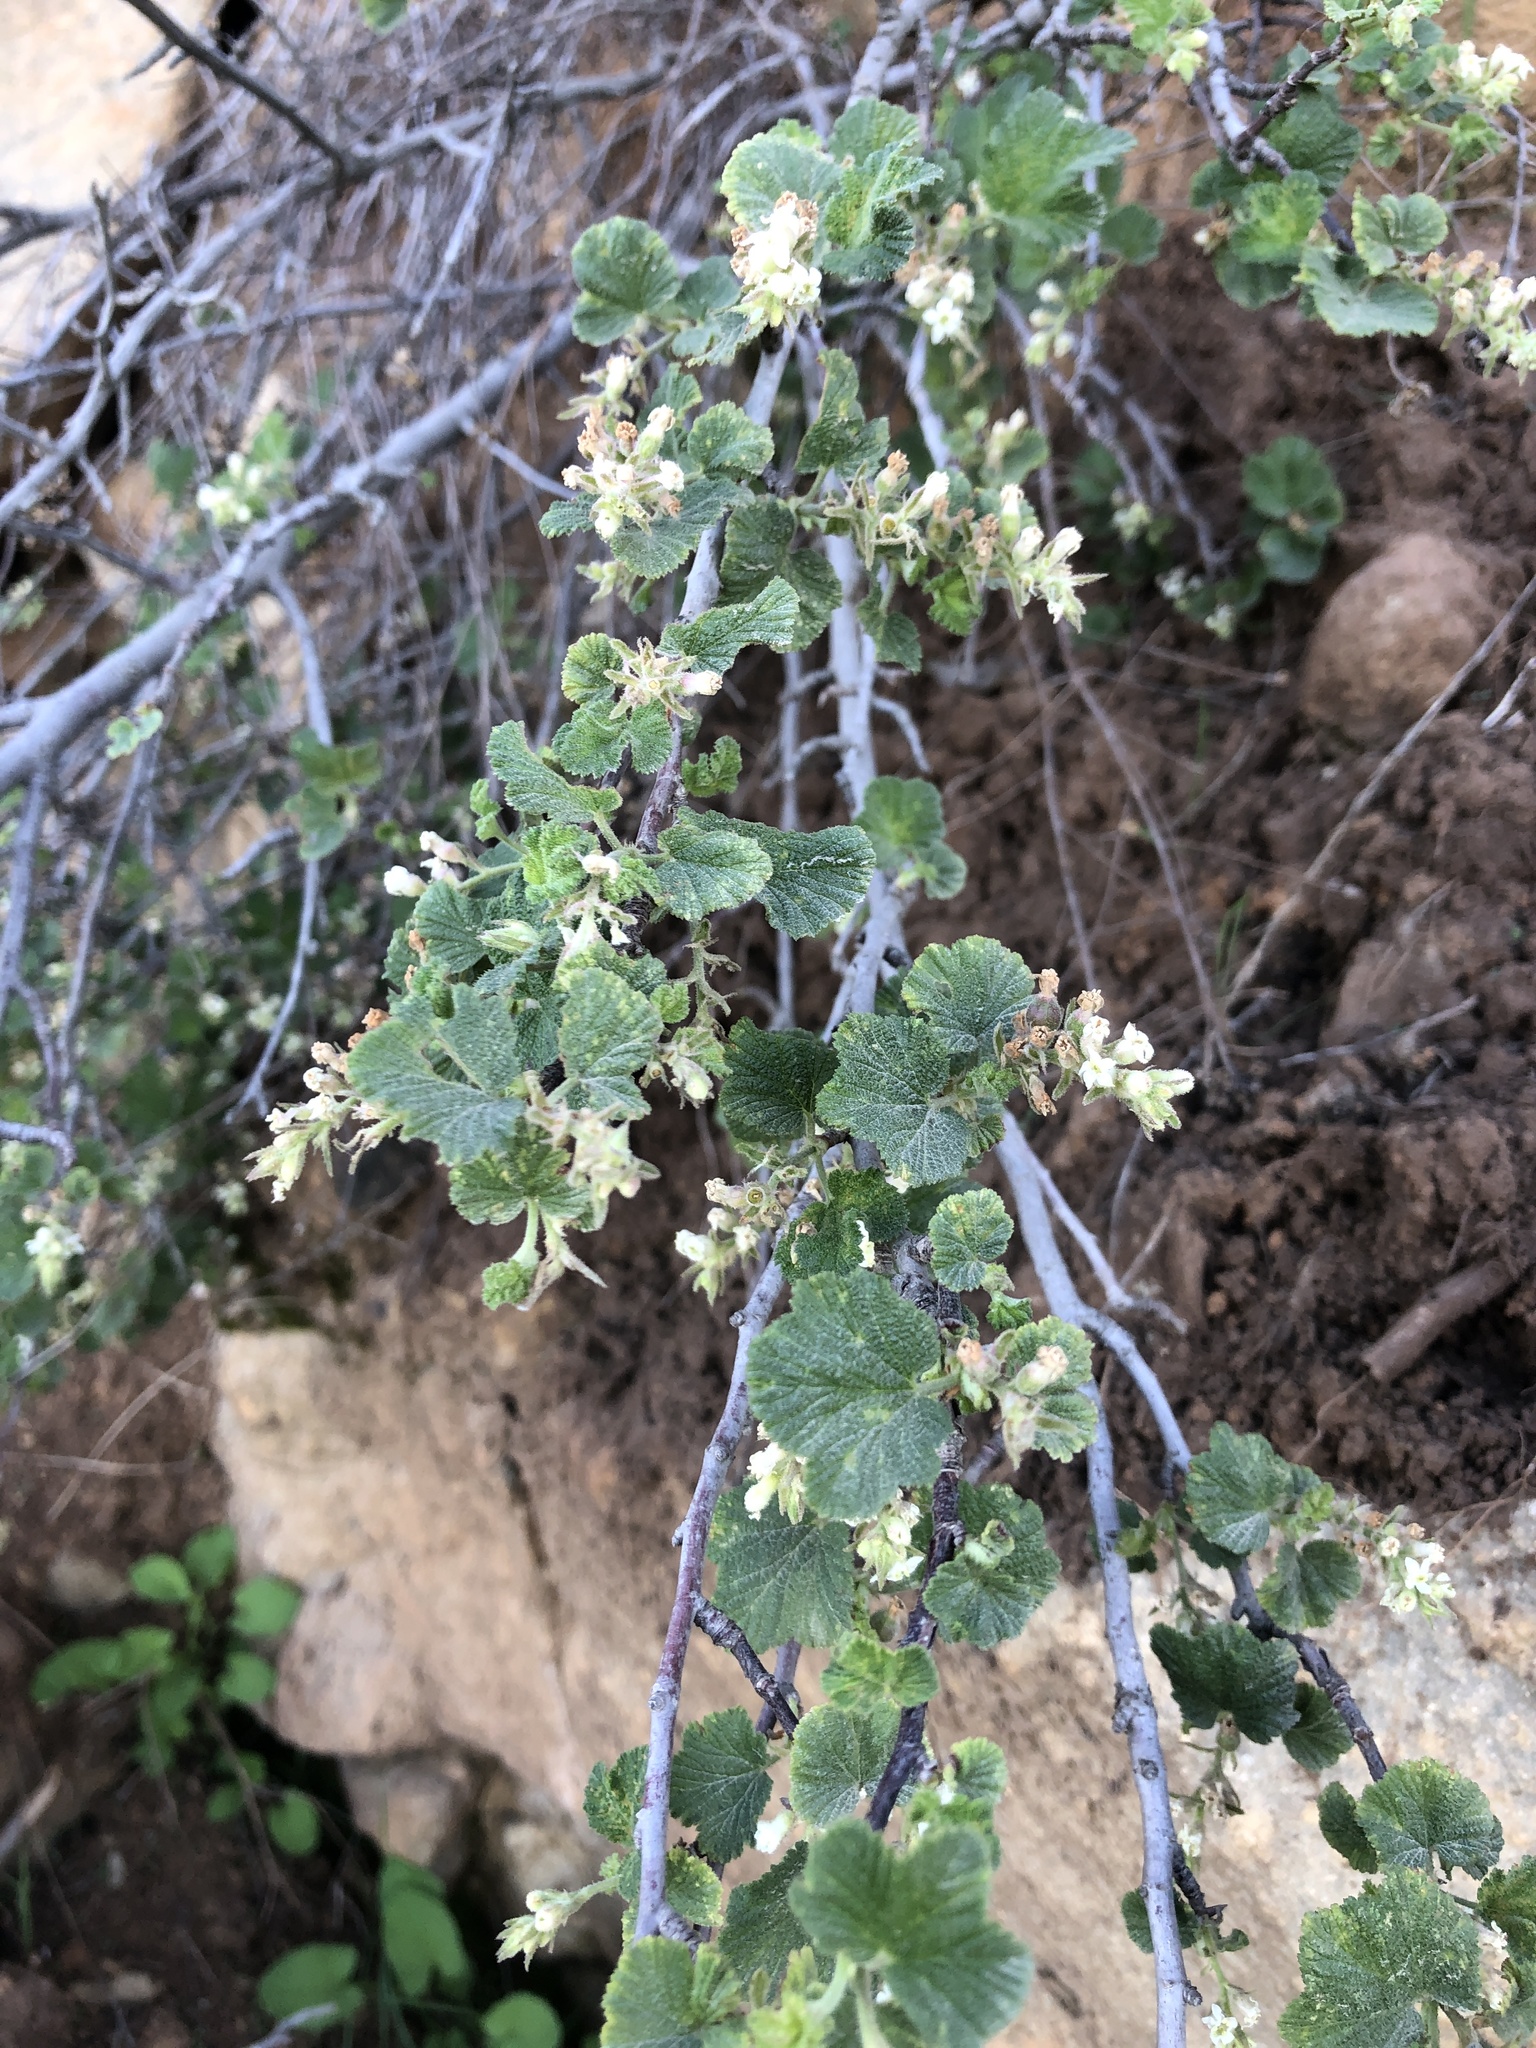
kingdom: Plantae
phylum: Tracheophyta
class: Magnoliopsida
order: Saxifragales
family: Grossulariaceae
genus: Ribes
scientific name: Ribes indecorum
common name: White-flower currant
